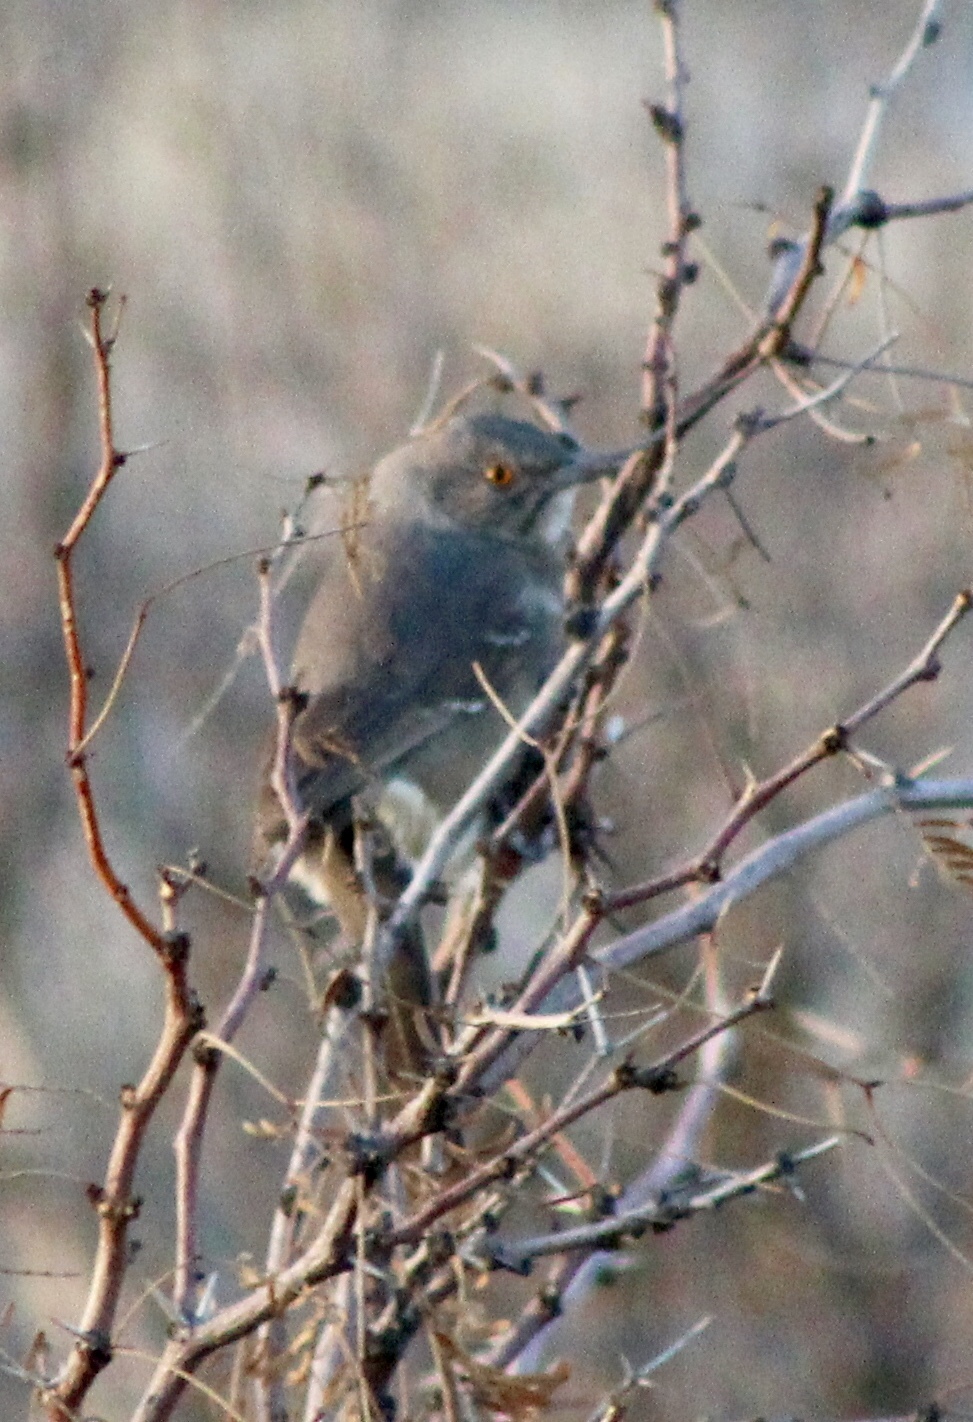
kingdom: Animalia
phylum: Chordata
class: Aves
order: Passeriformes
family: Mimidae
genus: Toxostoma
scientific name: Toxostoma curvirostre
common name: Curve-billed thrasher
